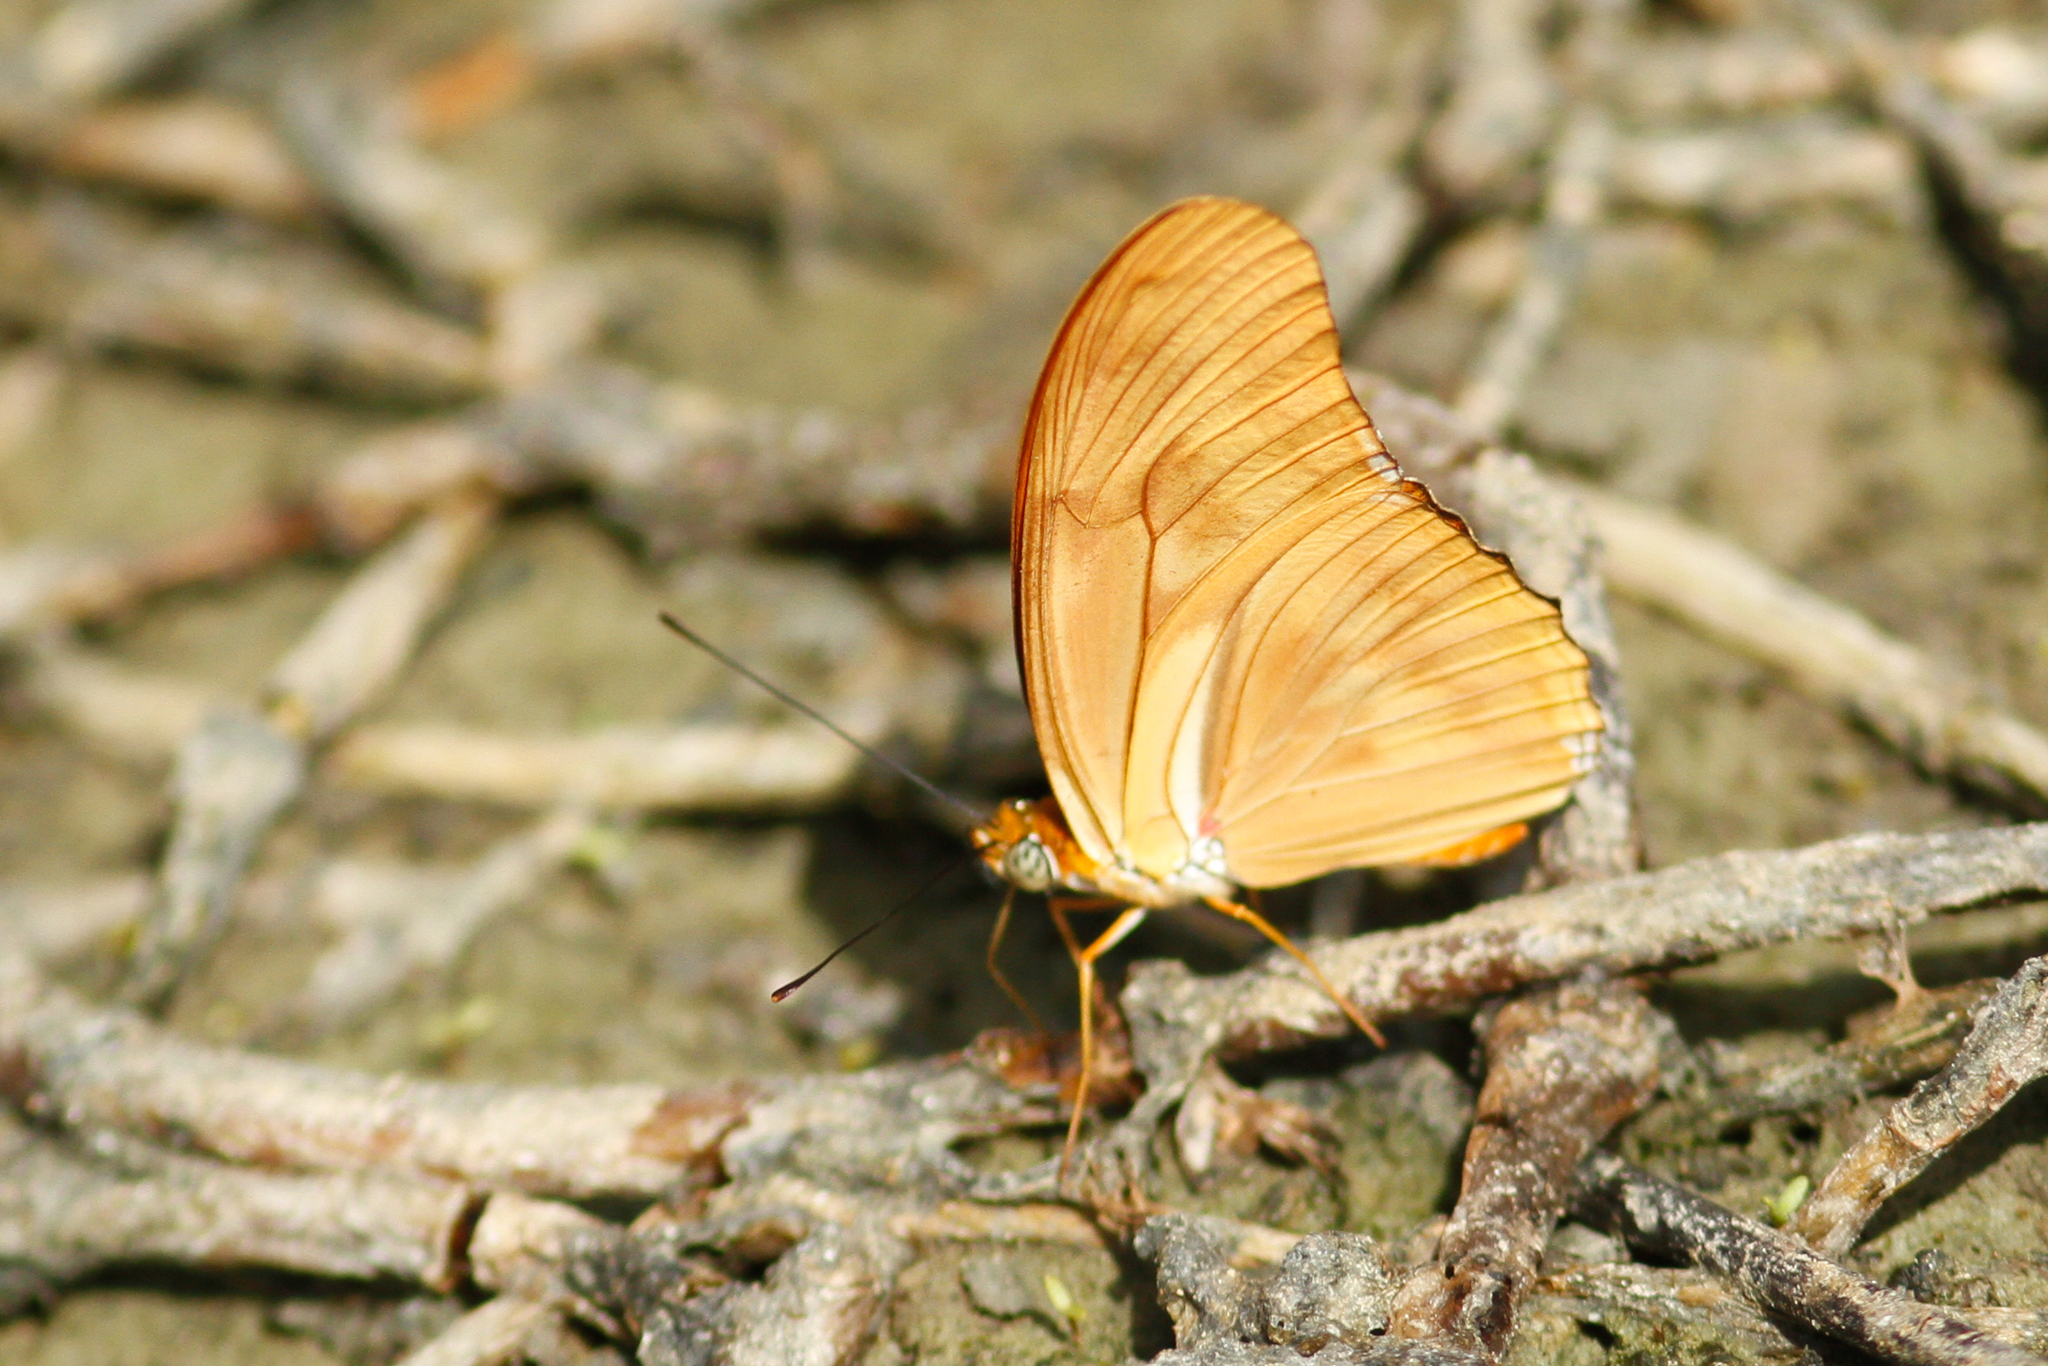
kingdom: Animalia
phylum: Arthropoda
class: Insecta
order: Lepidoptera
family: Nymphalidae
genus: Dryas
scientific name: Dryas iulia
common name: Flambeau
